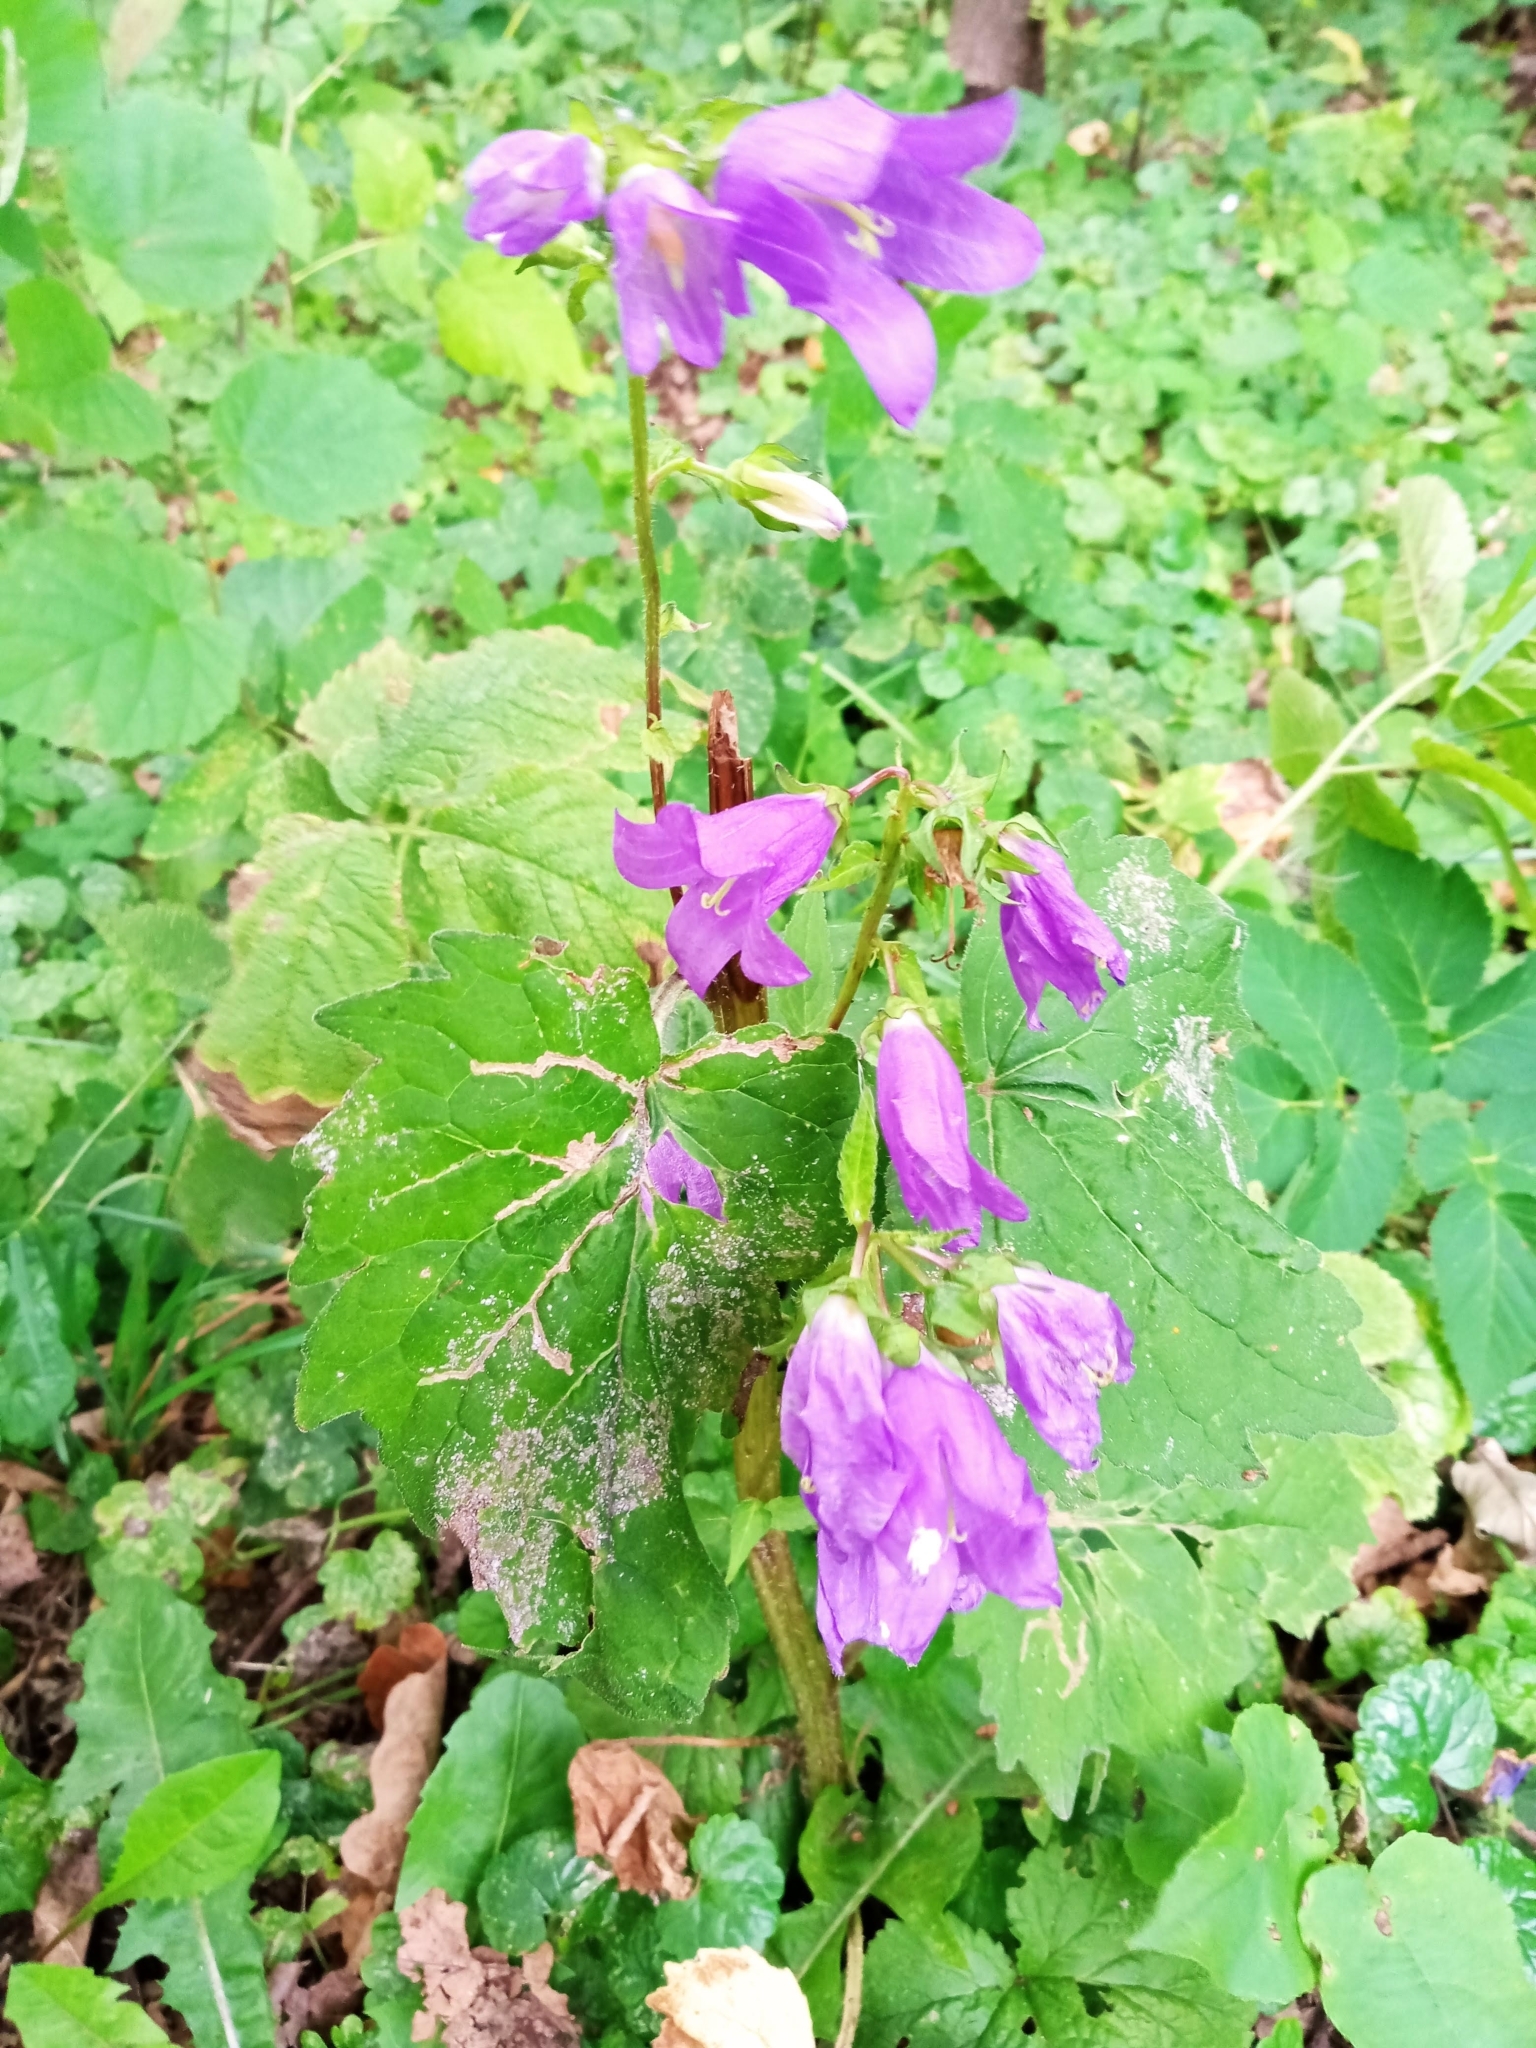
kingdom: Plantae
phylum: Tracheophyta
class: Magnoliopsida
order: Asterales
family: Campanulaceae
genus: Campanula
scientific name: Campanula trachelium
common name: Nettle-leaved bellflower
